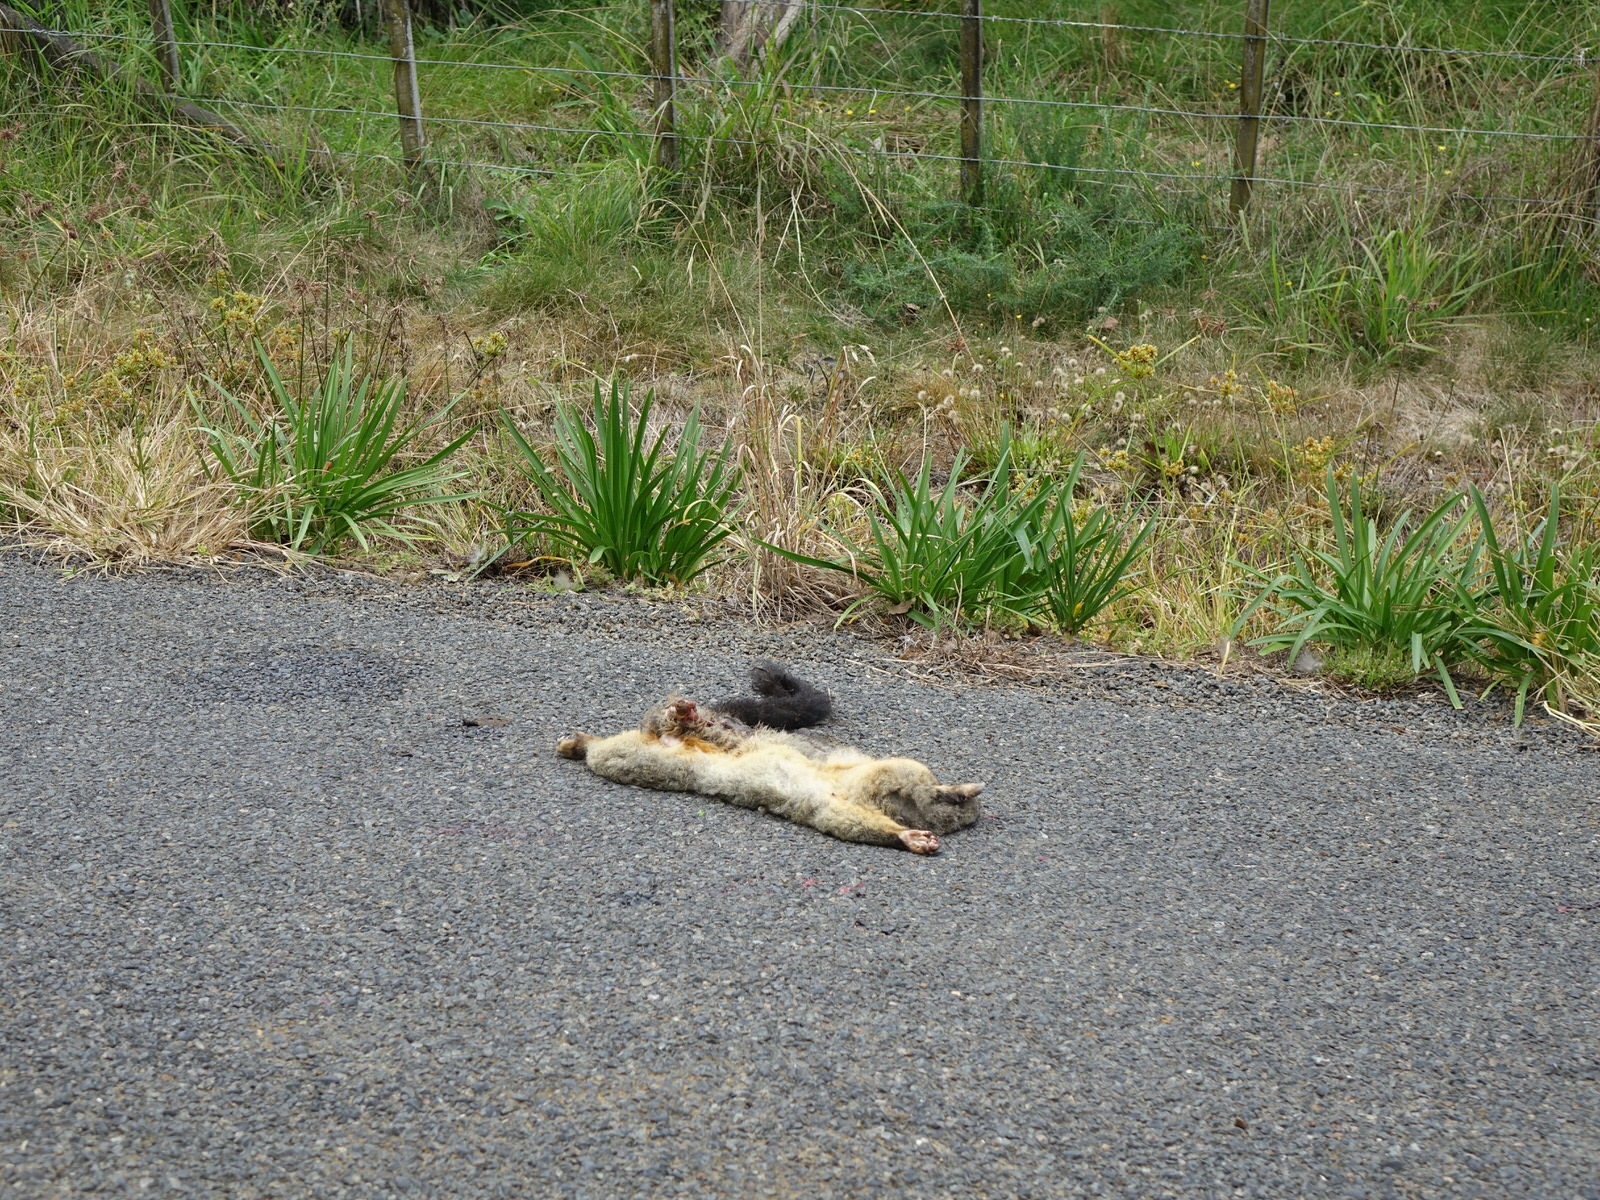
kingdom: Animalia
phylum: Chordata
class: Mammalia
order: Diprotodontia
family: Phalangeridae
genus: Trichosurus
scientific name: Trichosurus vulpecula
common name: Common brushtail
